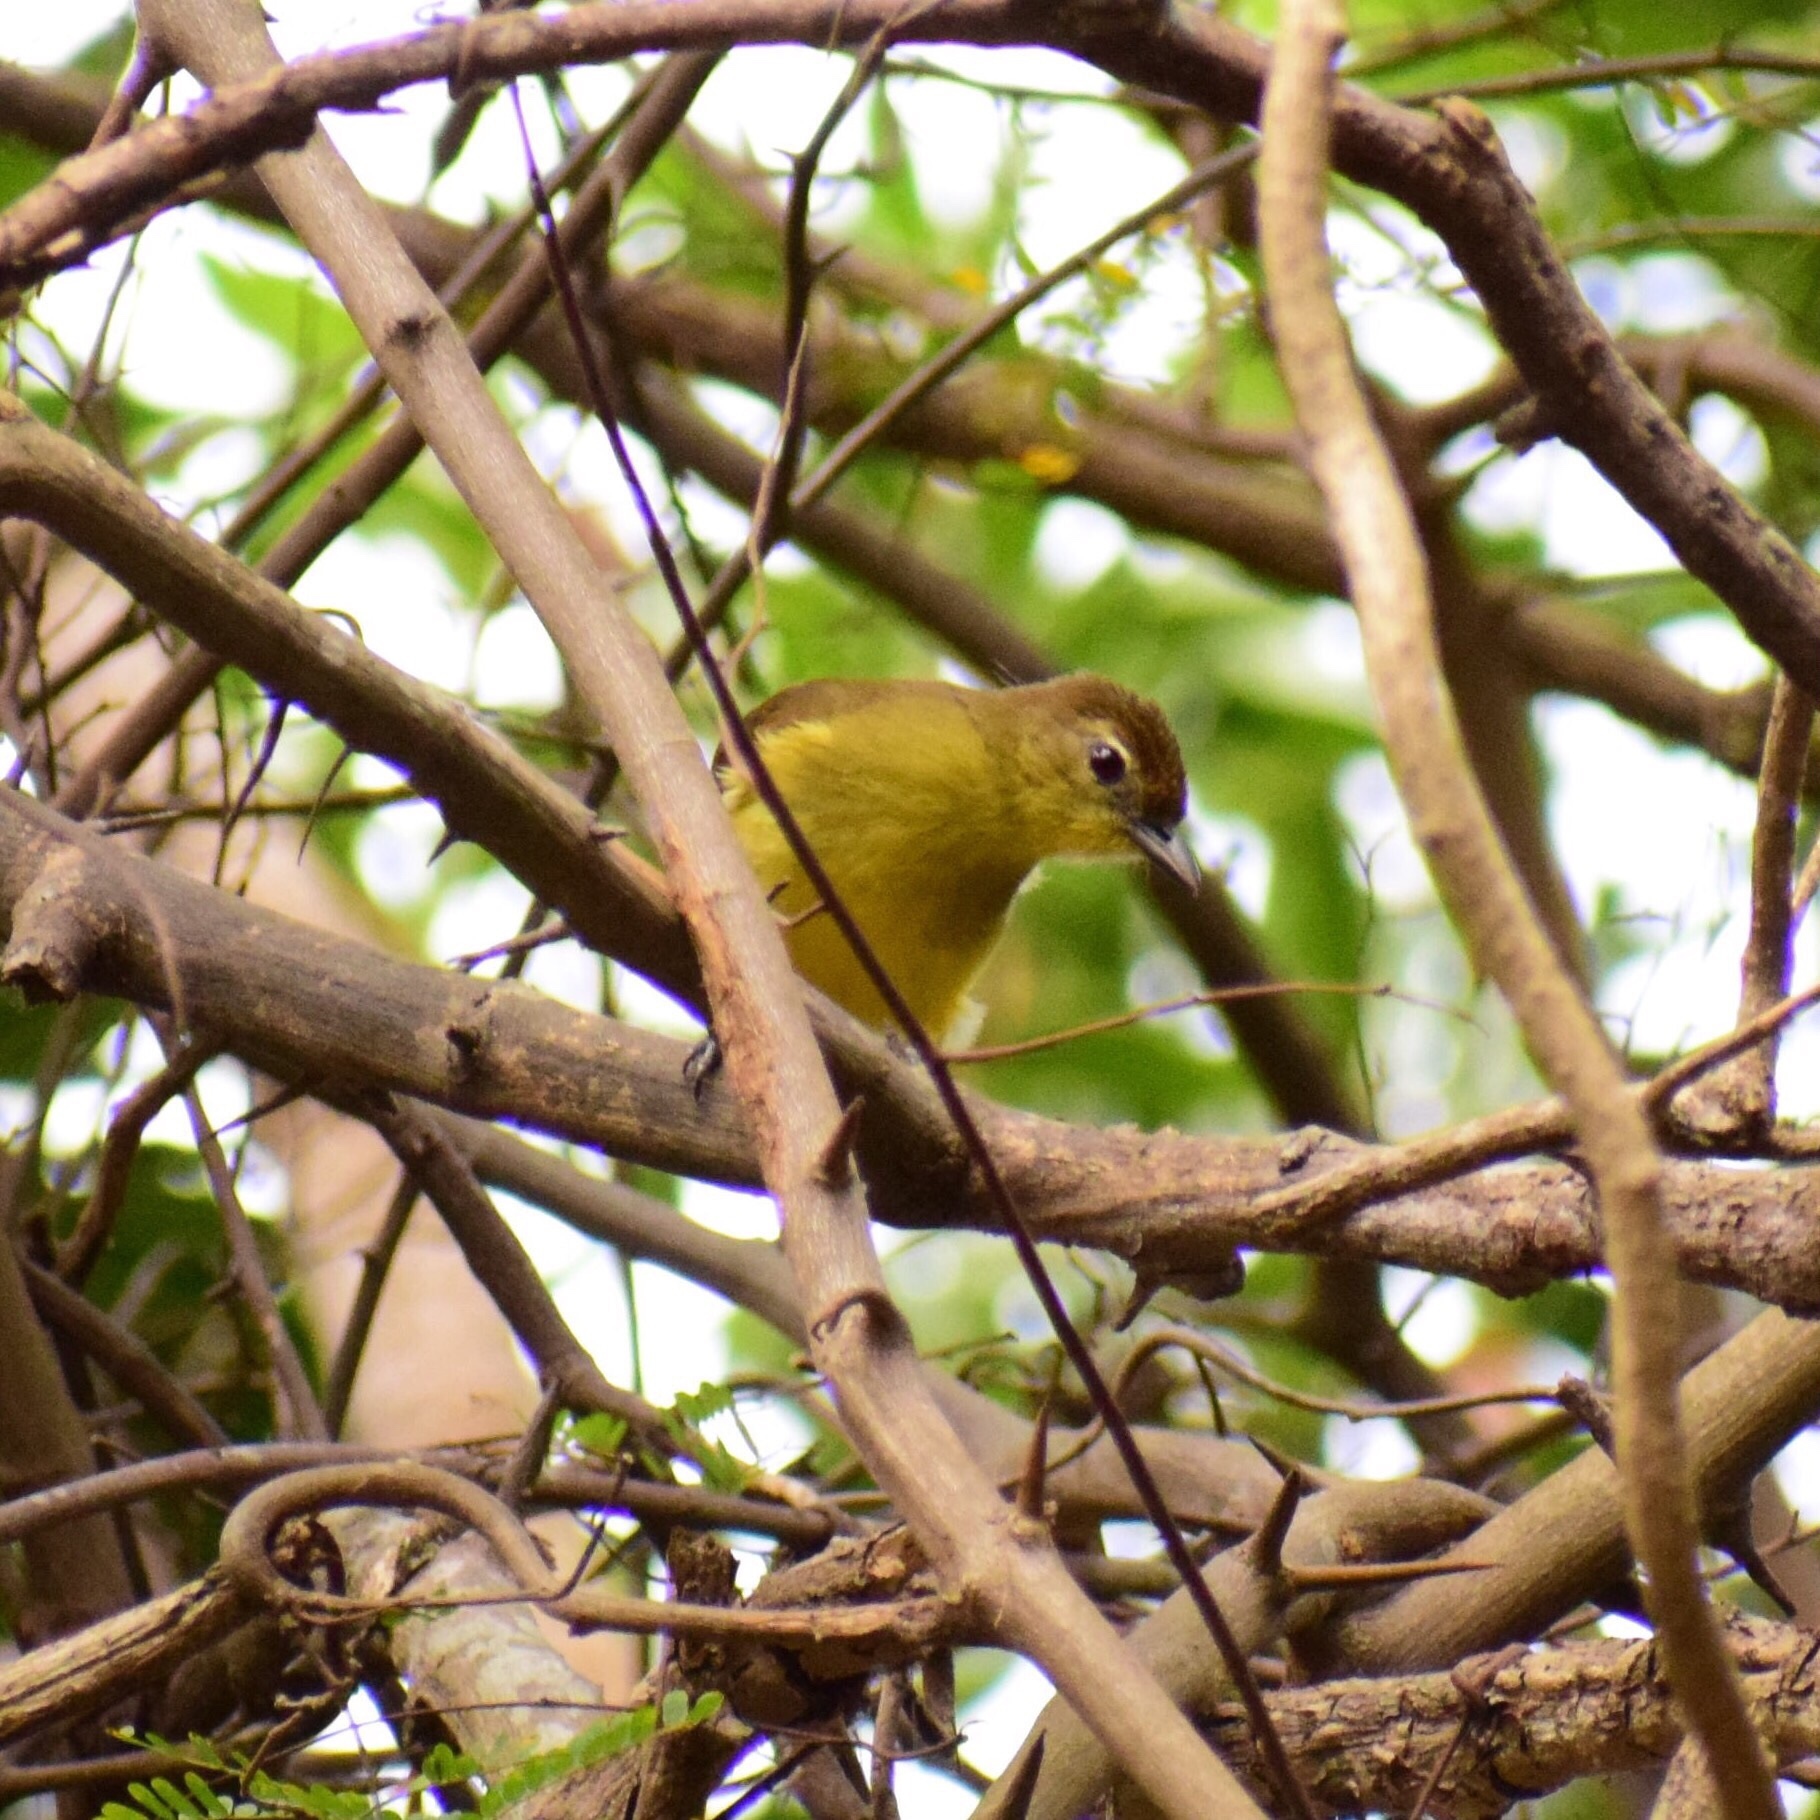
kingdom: Animalia
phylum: Chordata
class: Aves
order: Passeriformes
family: Pycnonotidae
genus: Chlorocichla
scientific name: Chlorocichla flaviventris
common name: Yellow-bellied greenbul
